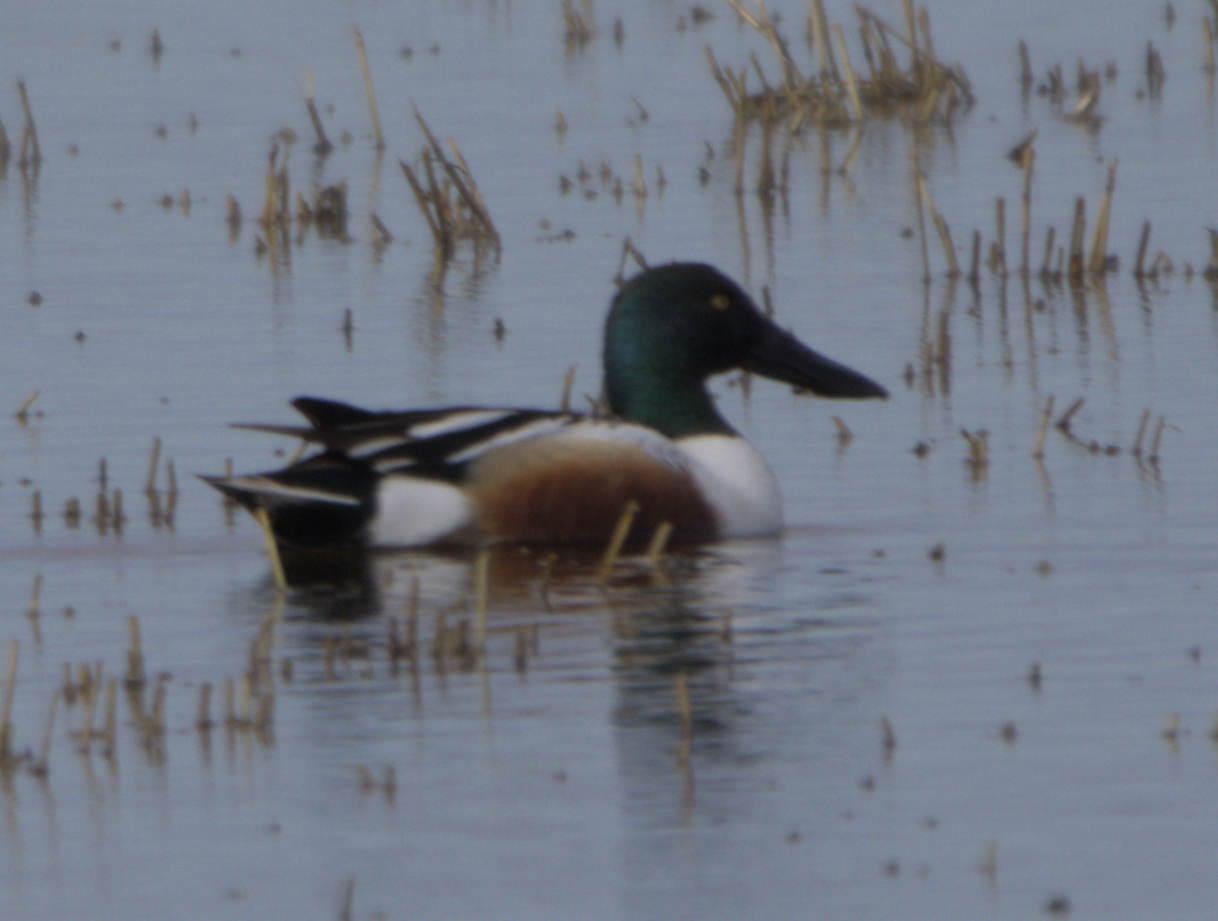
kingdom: Animalia
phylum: Chordata
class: Aves
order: Anseriformes
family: Anatidae
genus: Spatula
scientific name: Spatula clypeata
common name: Northern shoveler
